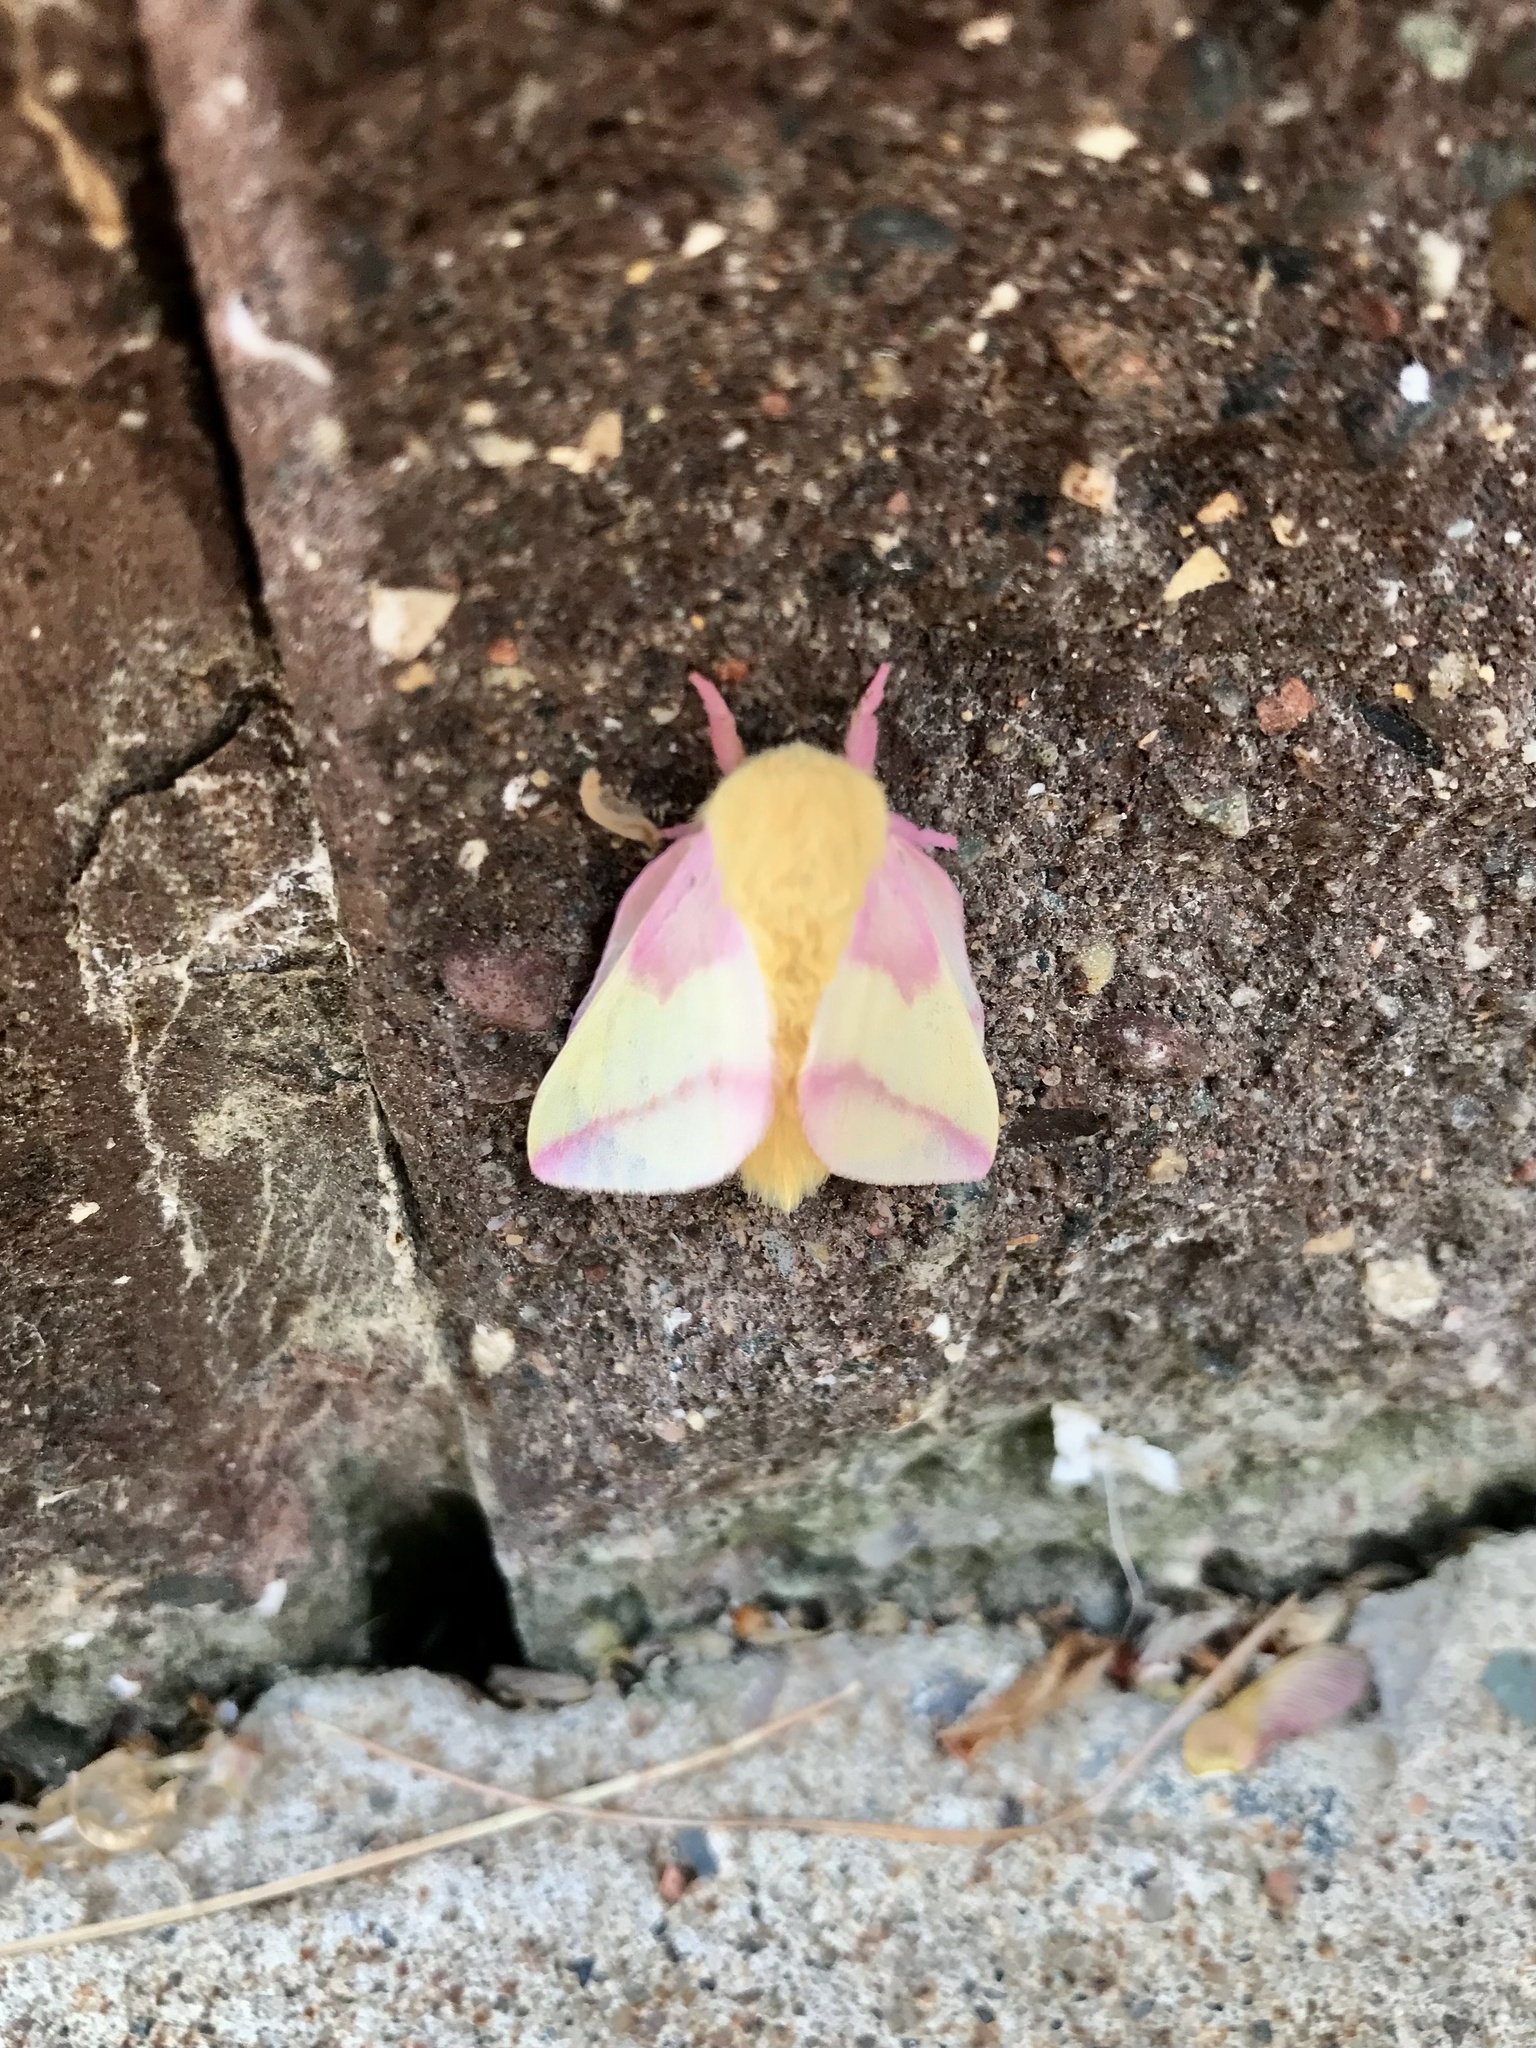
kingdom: Animalia
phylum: Arthropoda
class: Insecta
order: Lepidoptera
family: Saturniidae
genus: Dryocampa
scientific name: Dryocampa rubicunda
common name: Rosy maple moth
